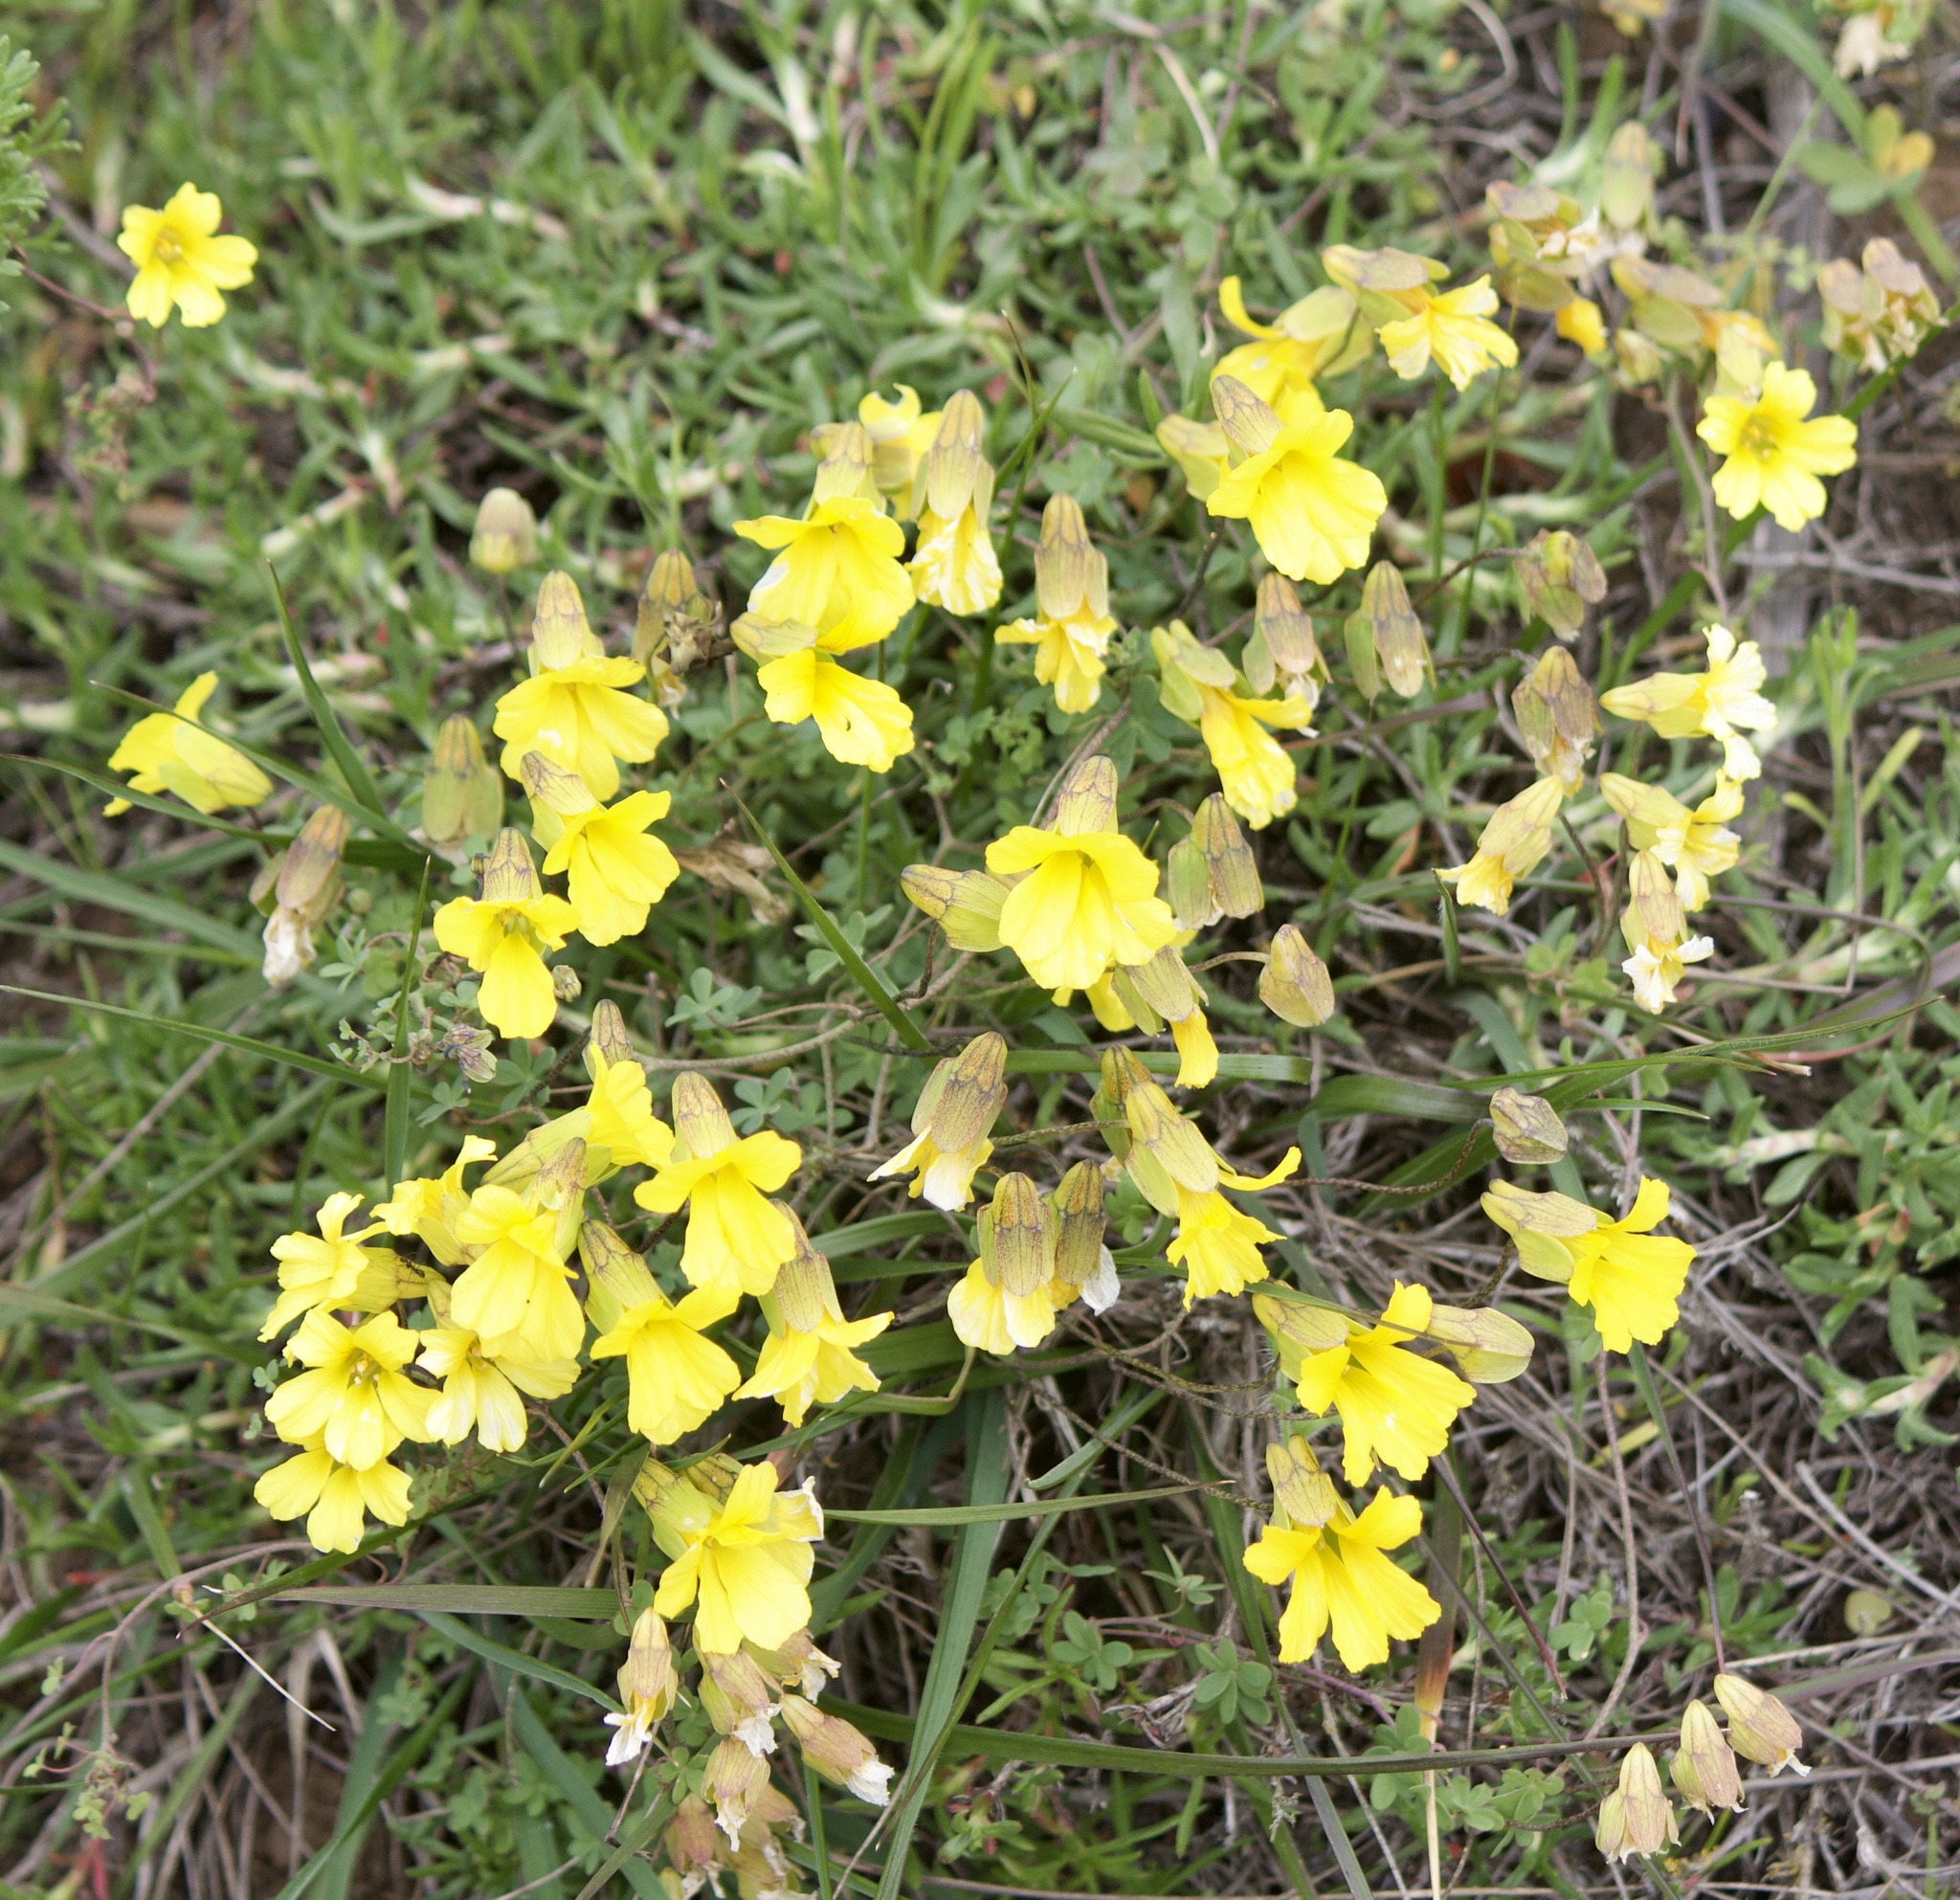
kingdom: Plantae
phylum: Tracheophyta
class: Magnoliopsida
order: Brassicales
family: Tropaeolaceae
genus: Tropaeolum
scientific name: Tropaeolum hookerianum
